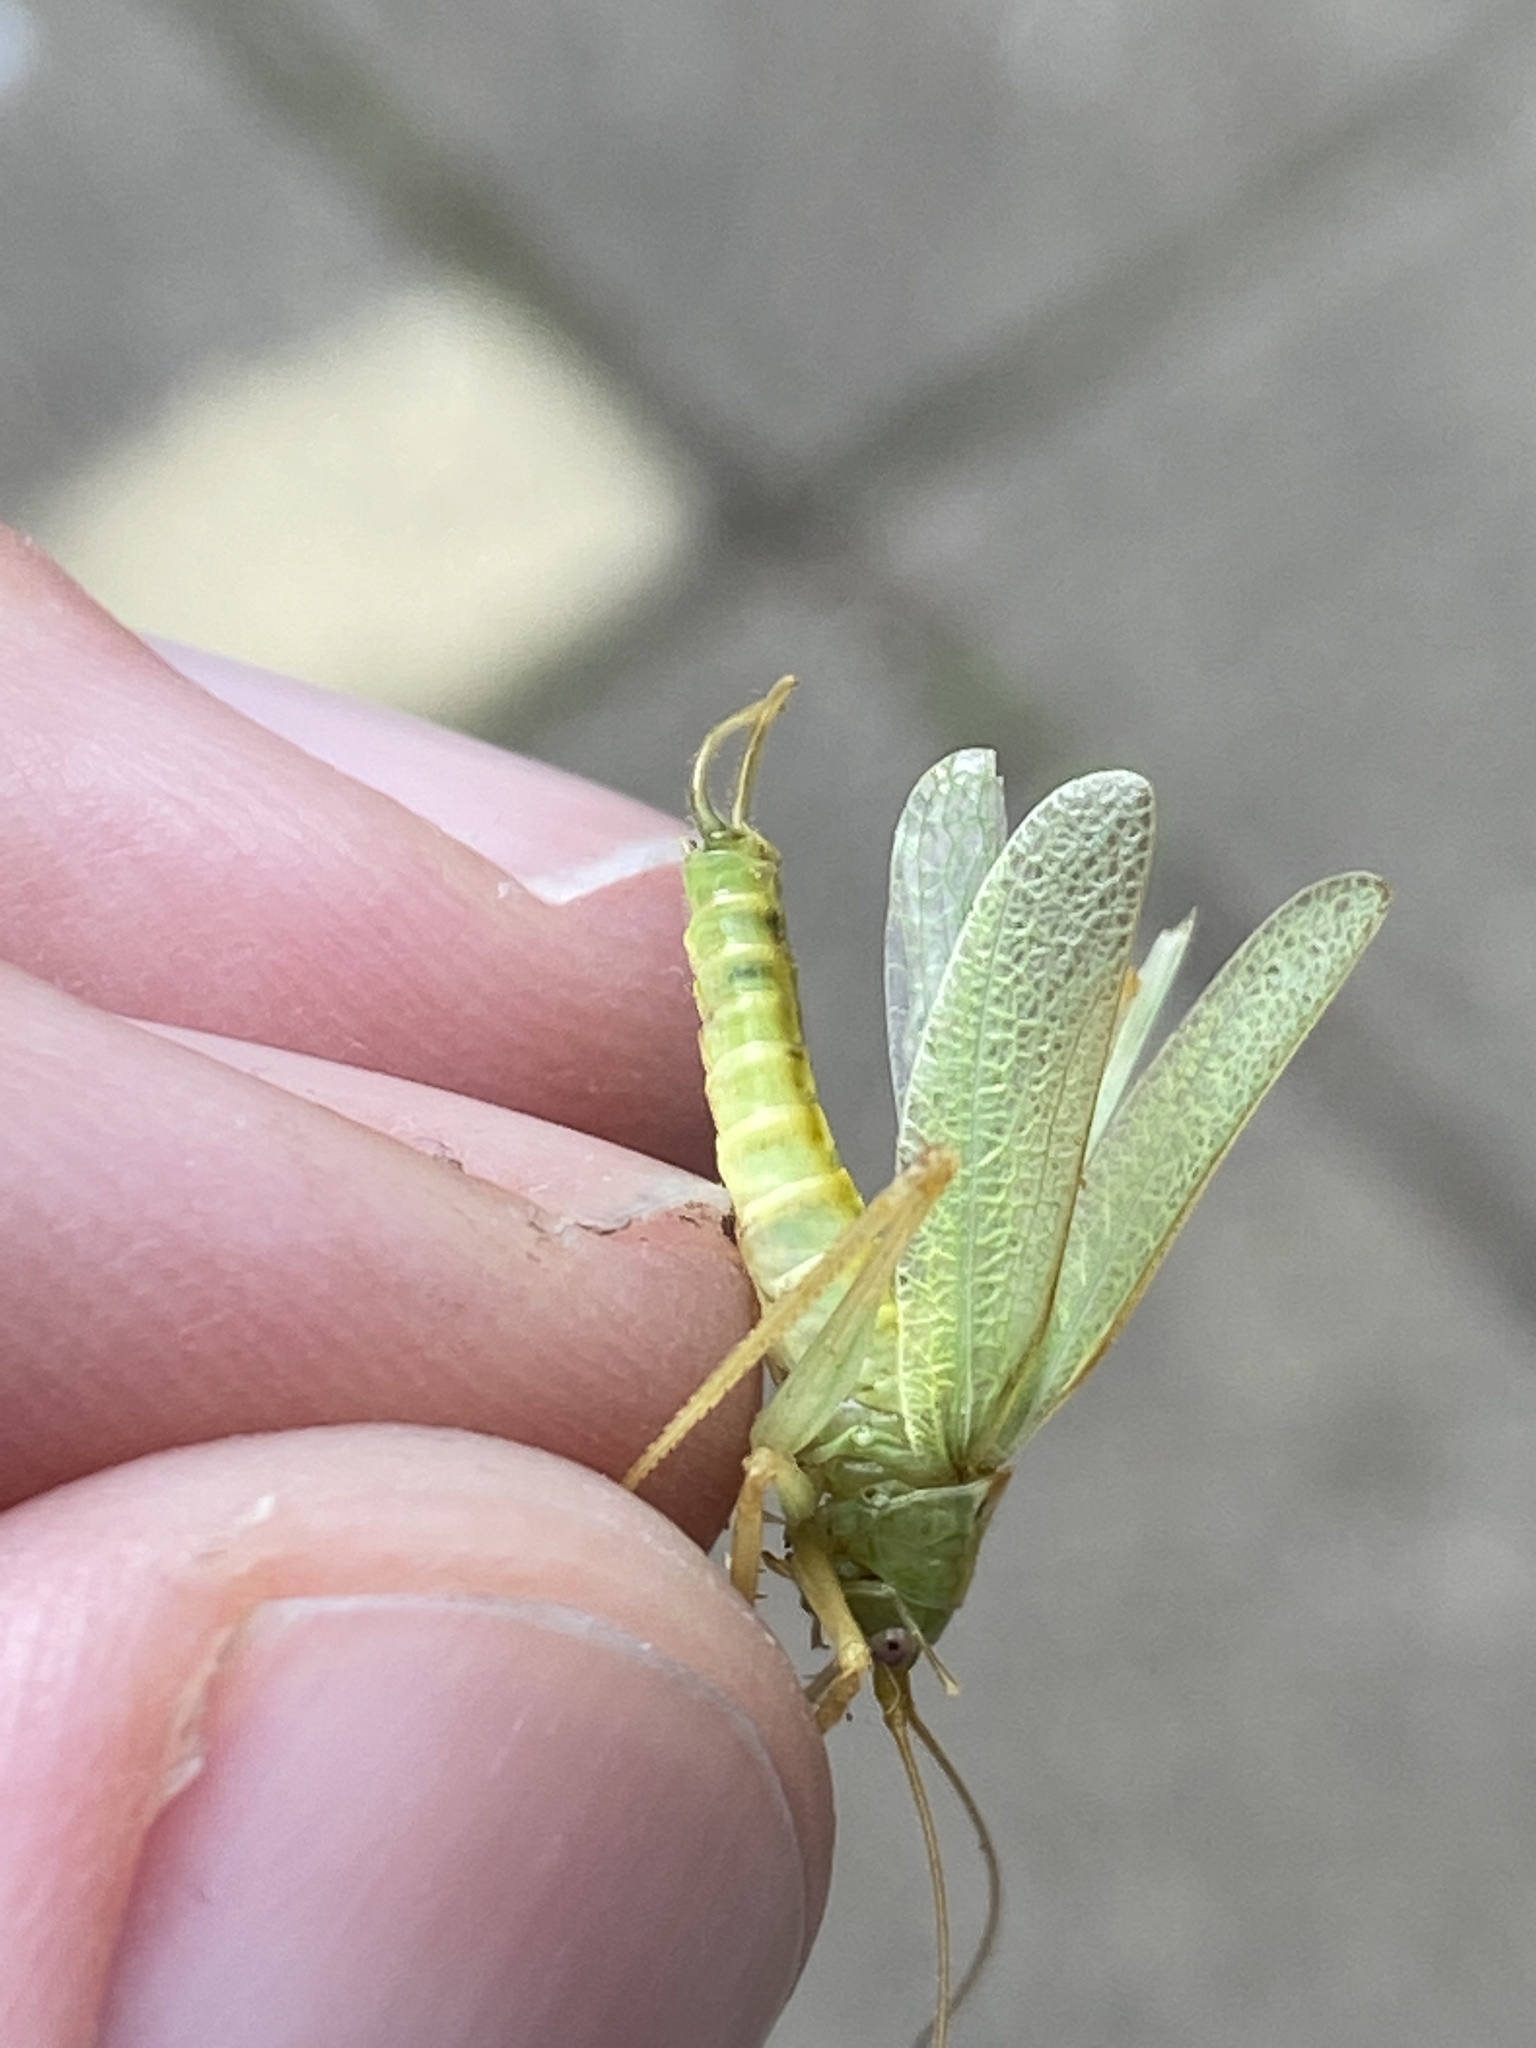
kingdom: Animalia
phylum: Arthropoda
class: Insecta
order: Orthoptera
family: Tettigoniidae
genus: Meconema
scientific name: Meconema thalassinum
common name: Oak bush-cricket
